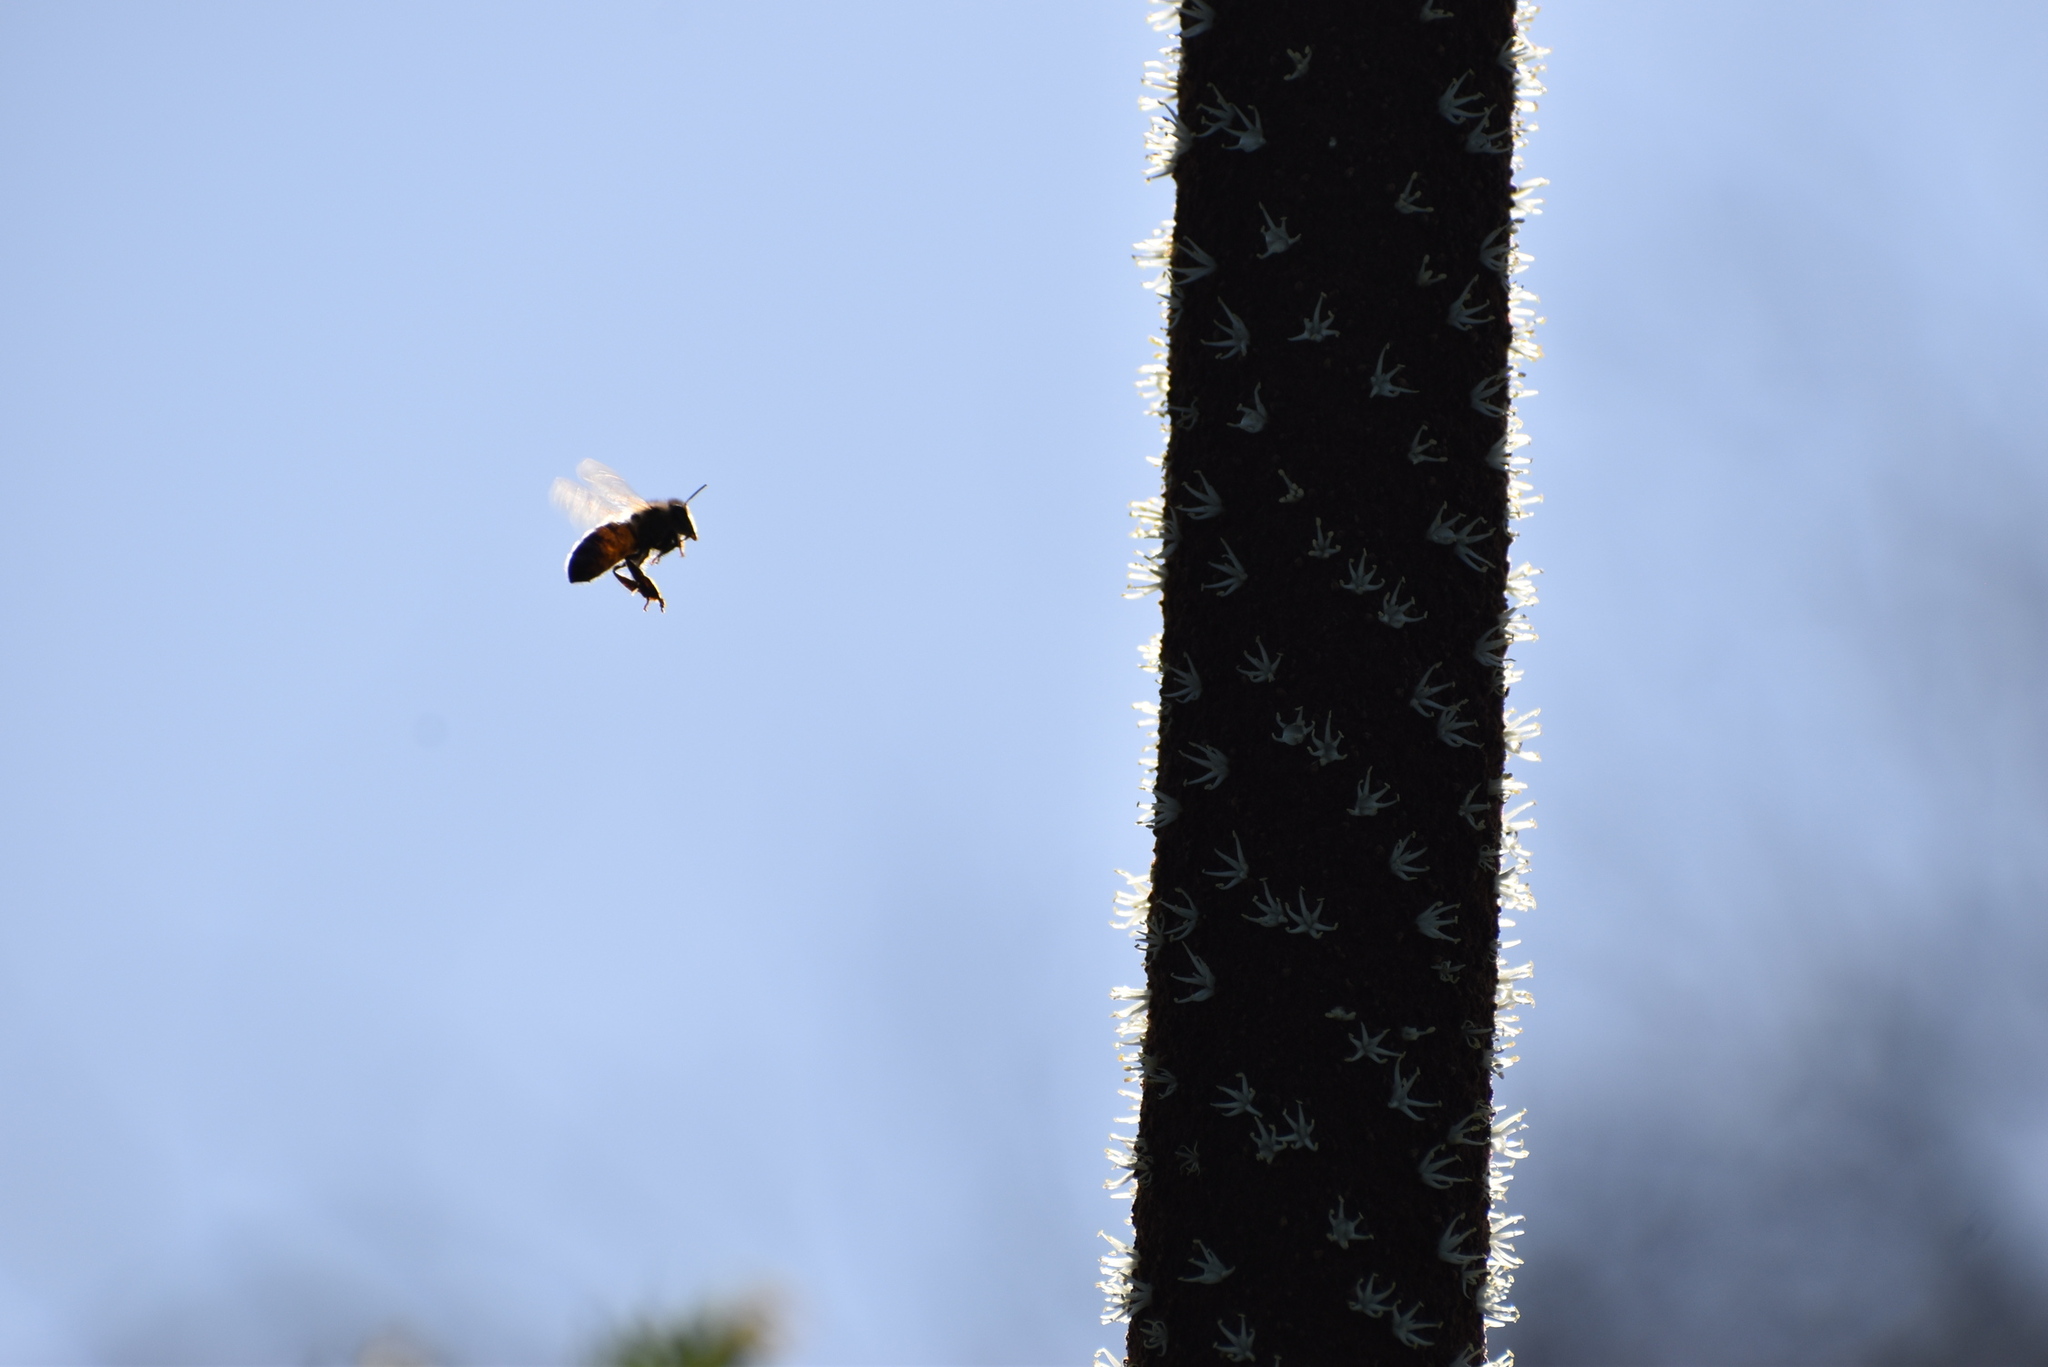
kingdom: Animalia
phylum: Arthropoda
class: Insecta
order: Hymenoptera
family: Apidae
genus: Apis
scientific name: Apis mellifera
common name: Honey bee
